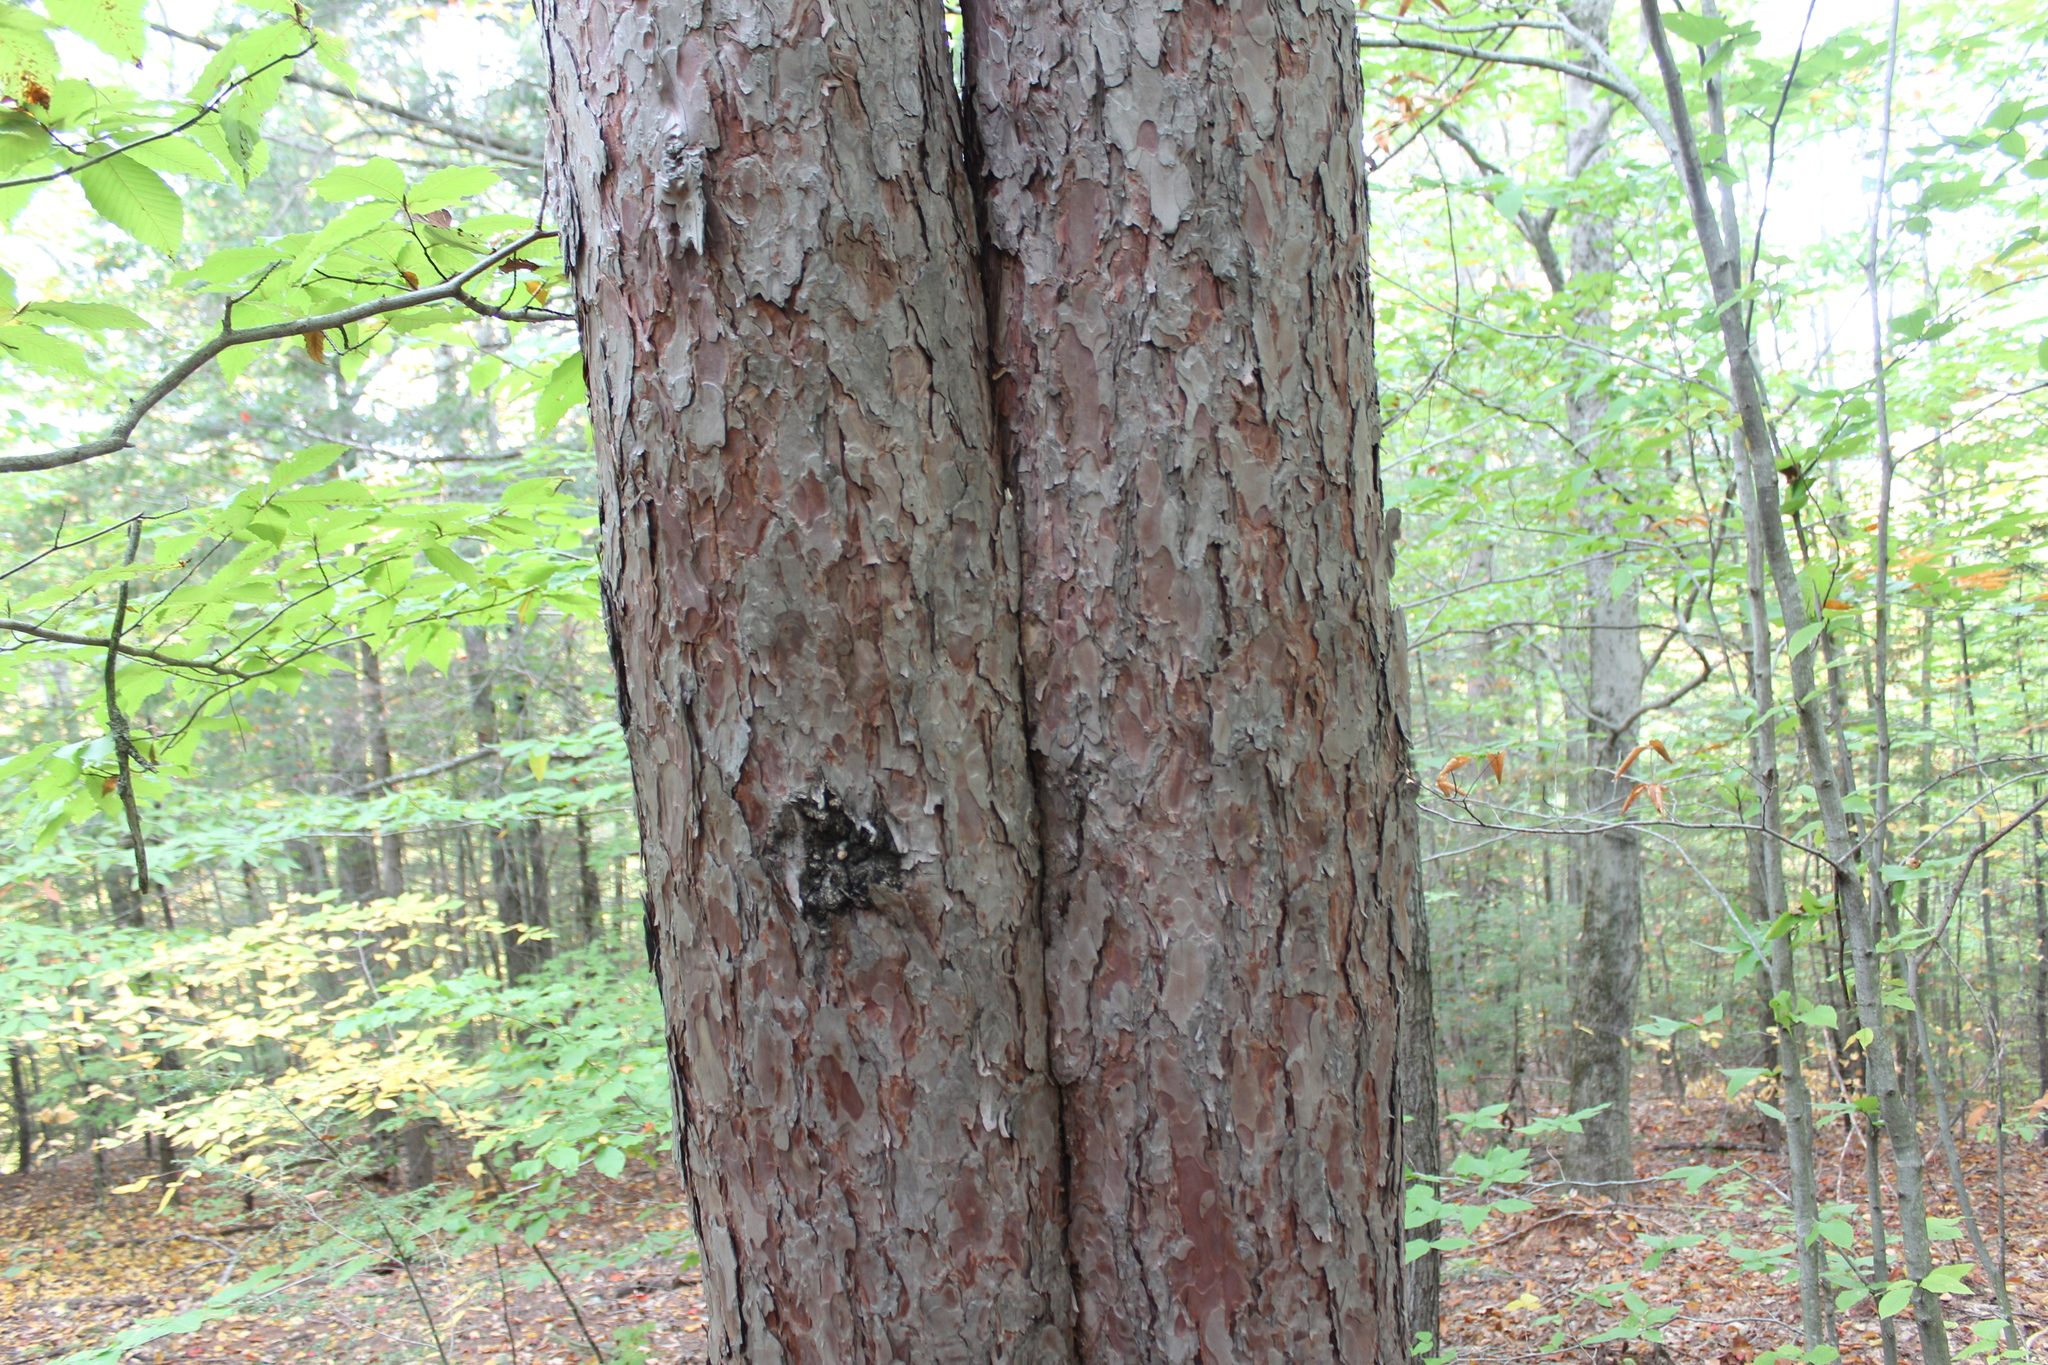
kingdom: Plantae
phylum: Tracheophyta
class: Pinopsida
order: Pinales
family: Pinaceae
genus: Pinus
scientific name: Pinus resinosa
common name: Norway pine
